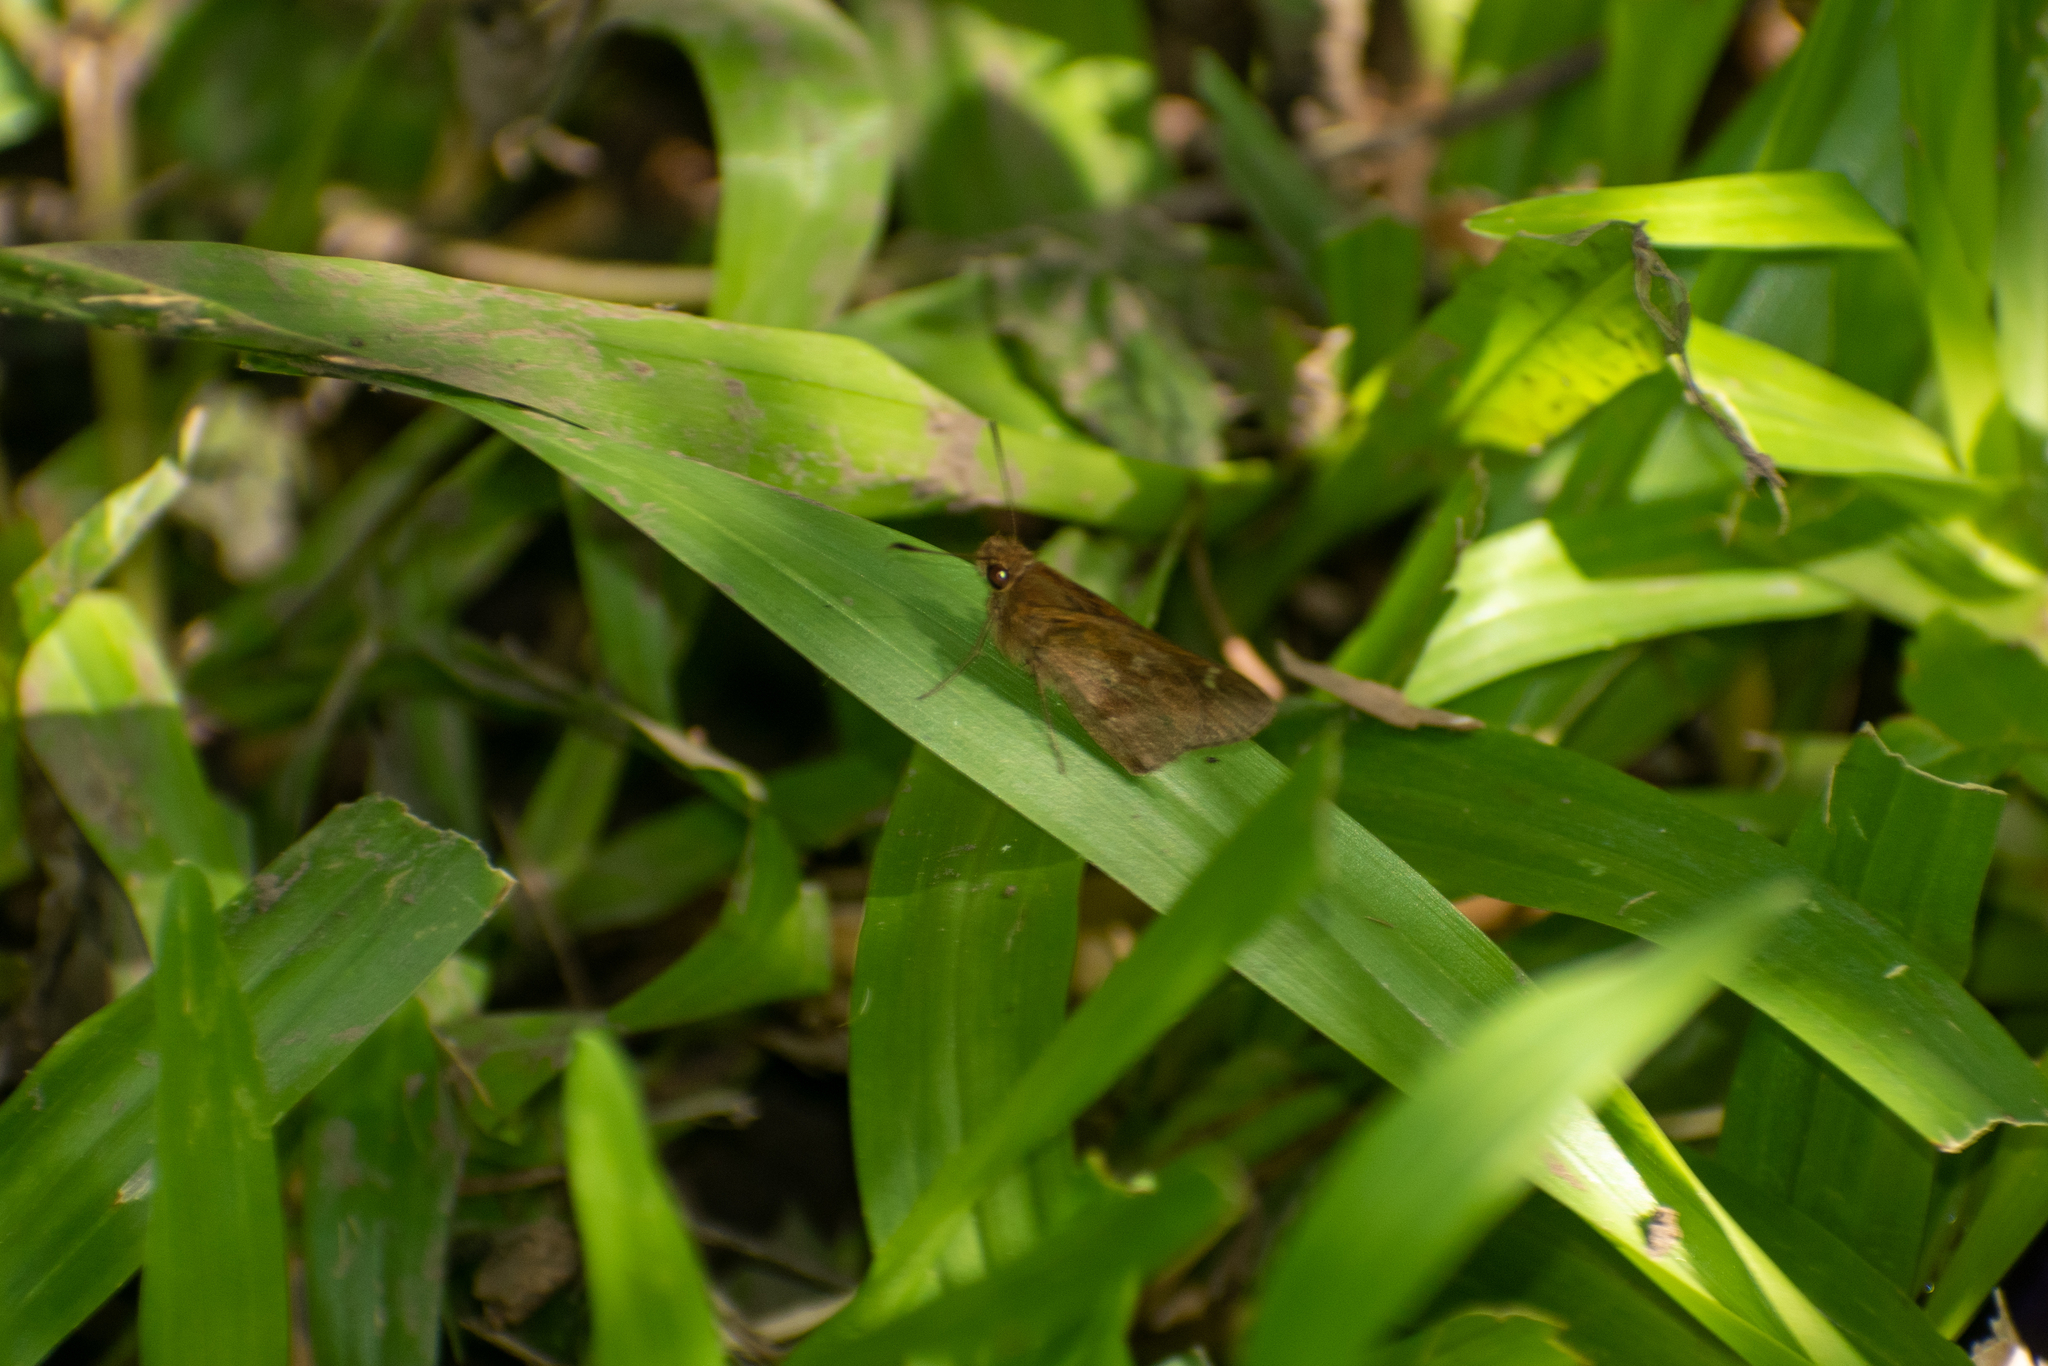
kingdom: Animalia
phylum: Arthropoda
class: Insecta
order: Lepidoptera
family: Hesperiidae
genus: Cymaenes
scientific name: Cymaenes
